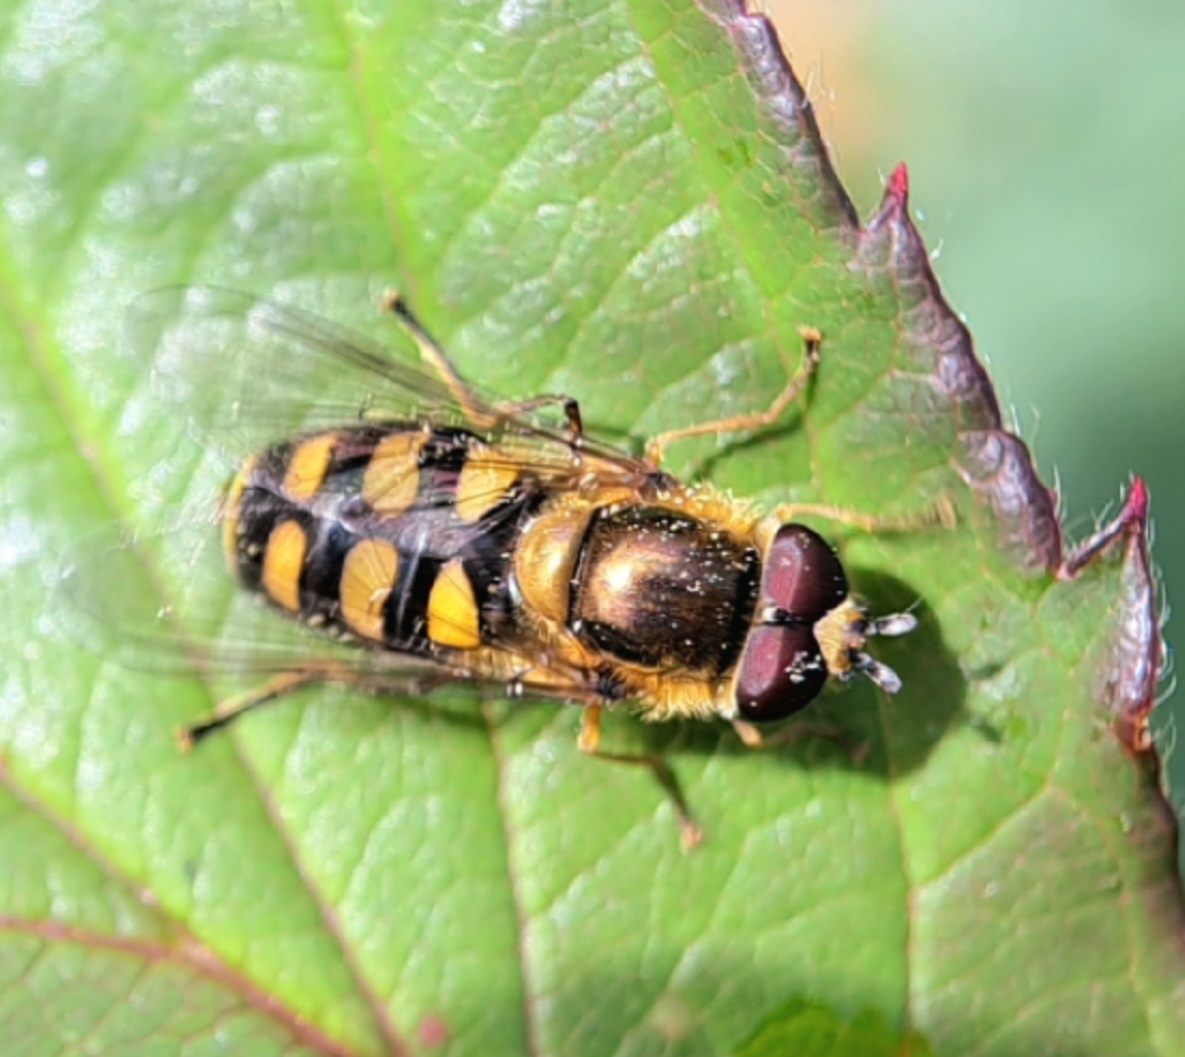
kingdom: Animalia
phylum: Arthropoda
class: Insecta
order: Diptera
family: Syrphidae
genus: Eupeodes
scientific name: Eupeodes
